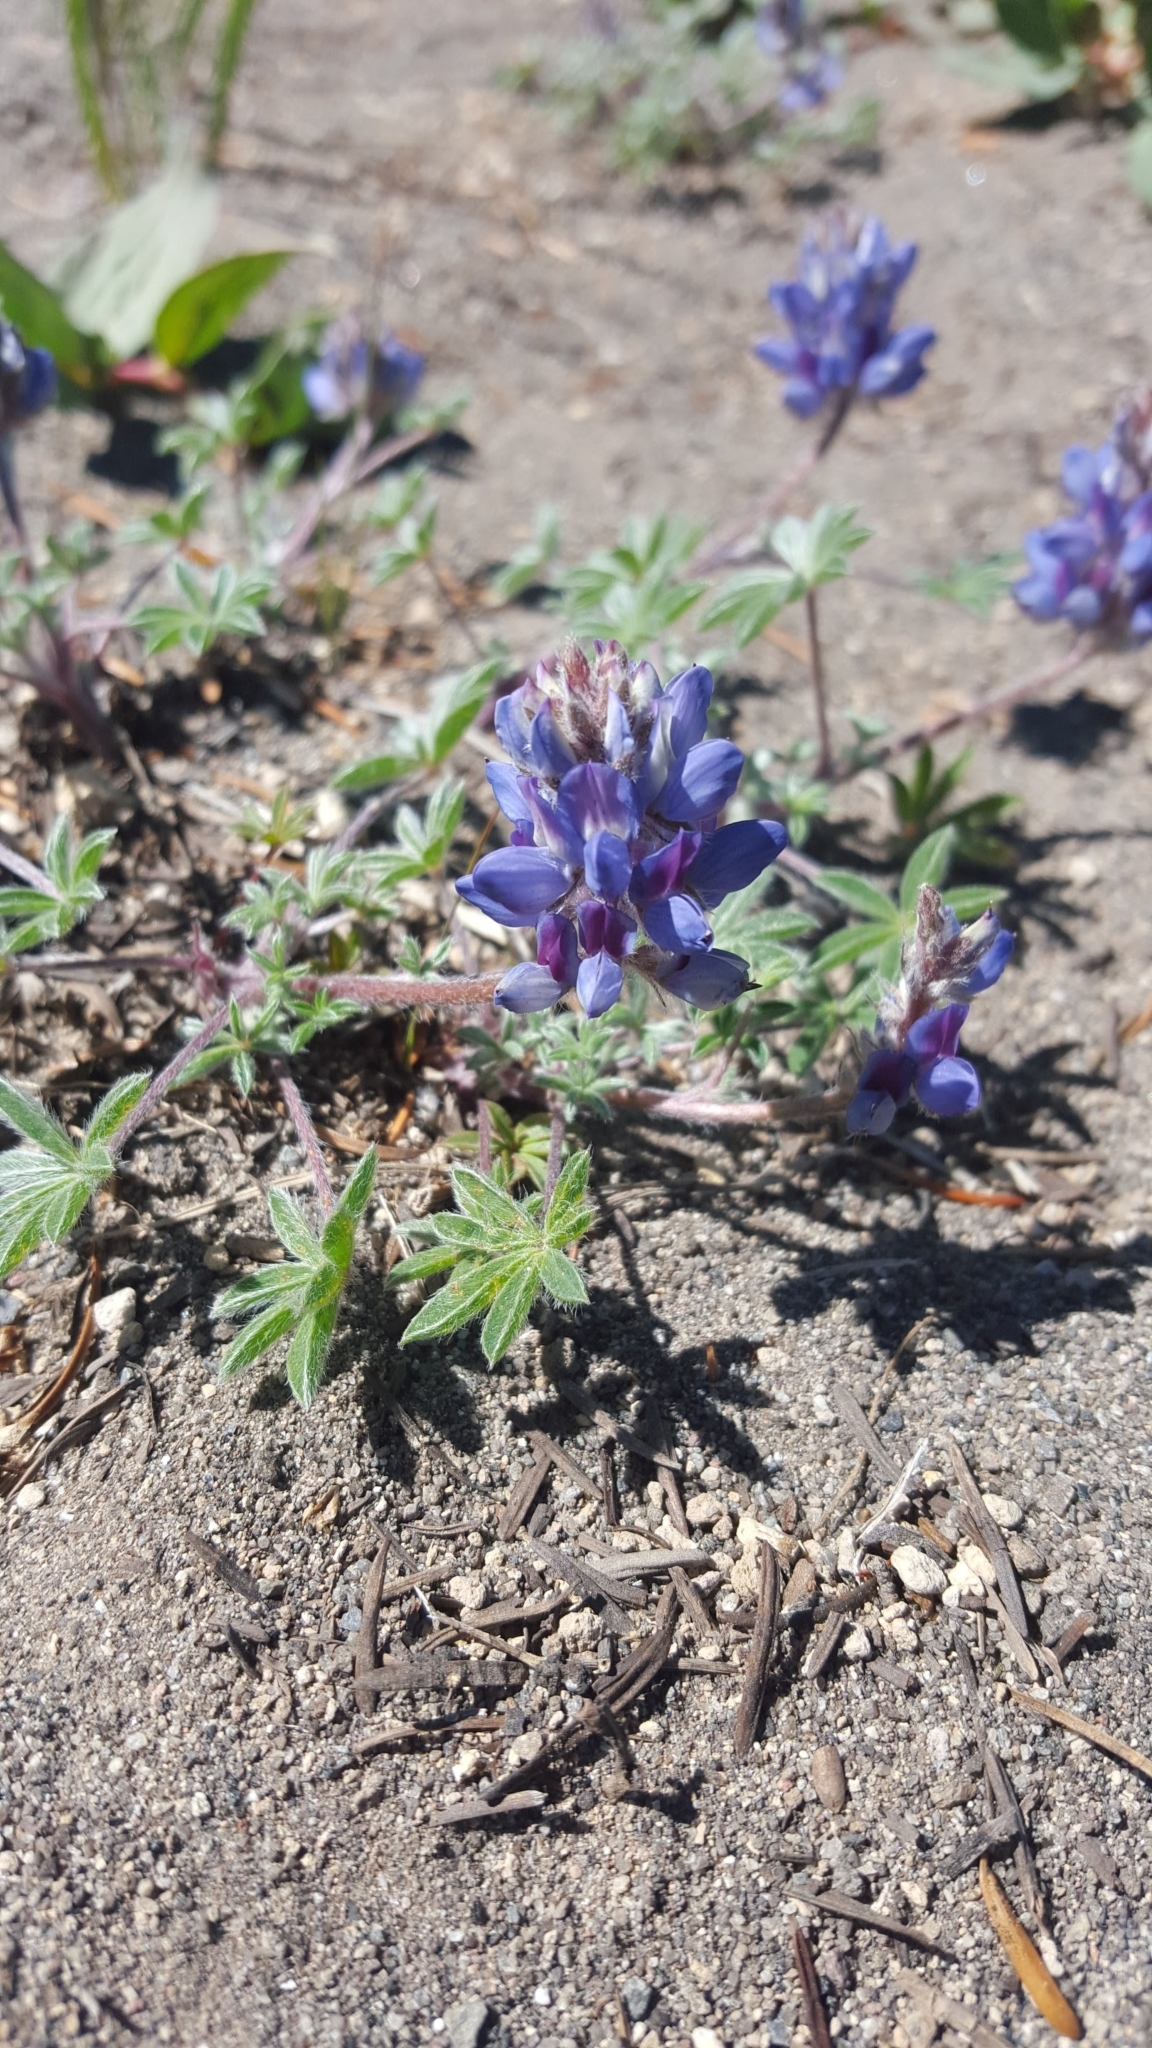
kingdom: Plantae
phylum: Tracheophyta
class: Magnoliopsida
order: Fabales
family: Fabaceae
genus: Lupinus
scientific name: Lupinus lepidus
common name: Prairie lupine
